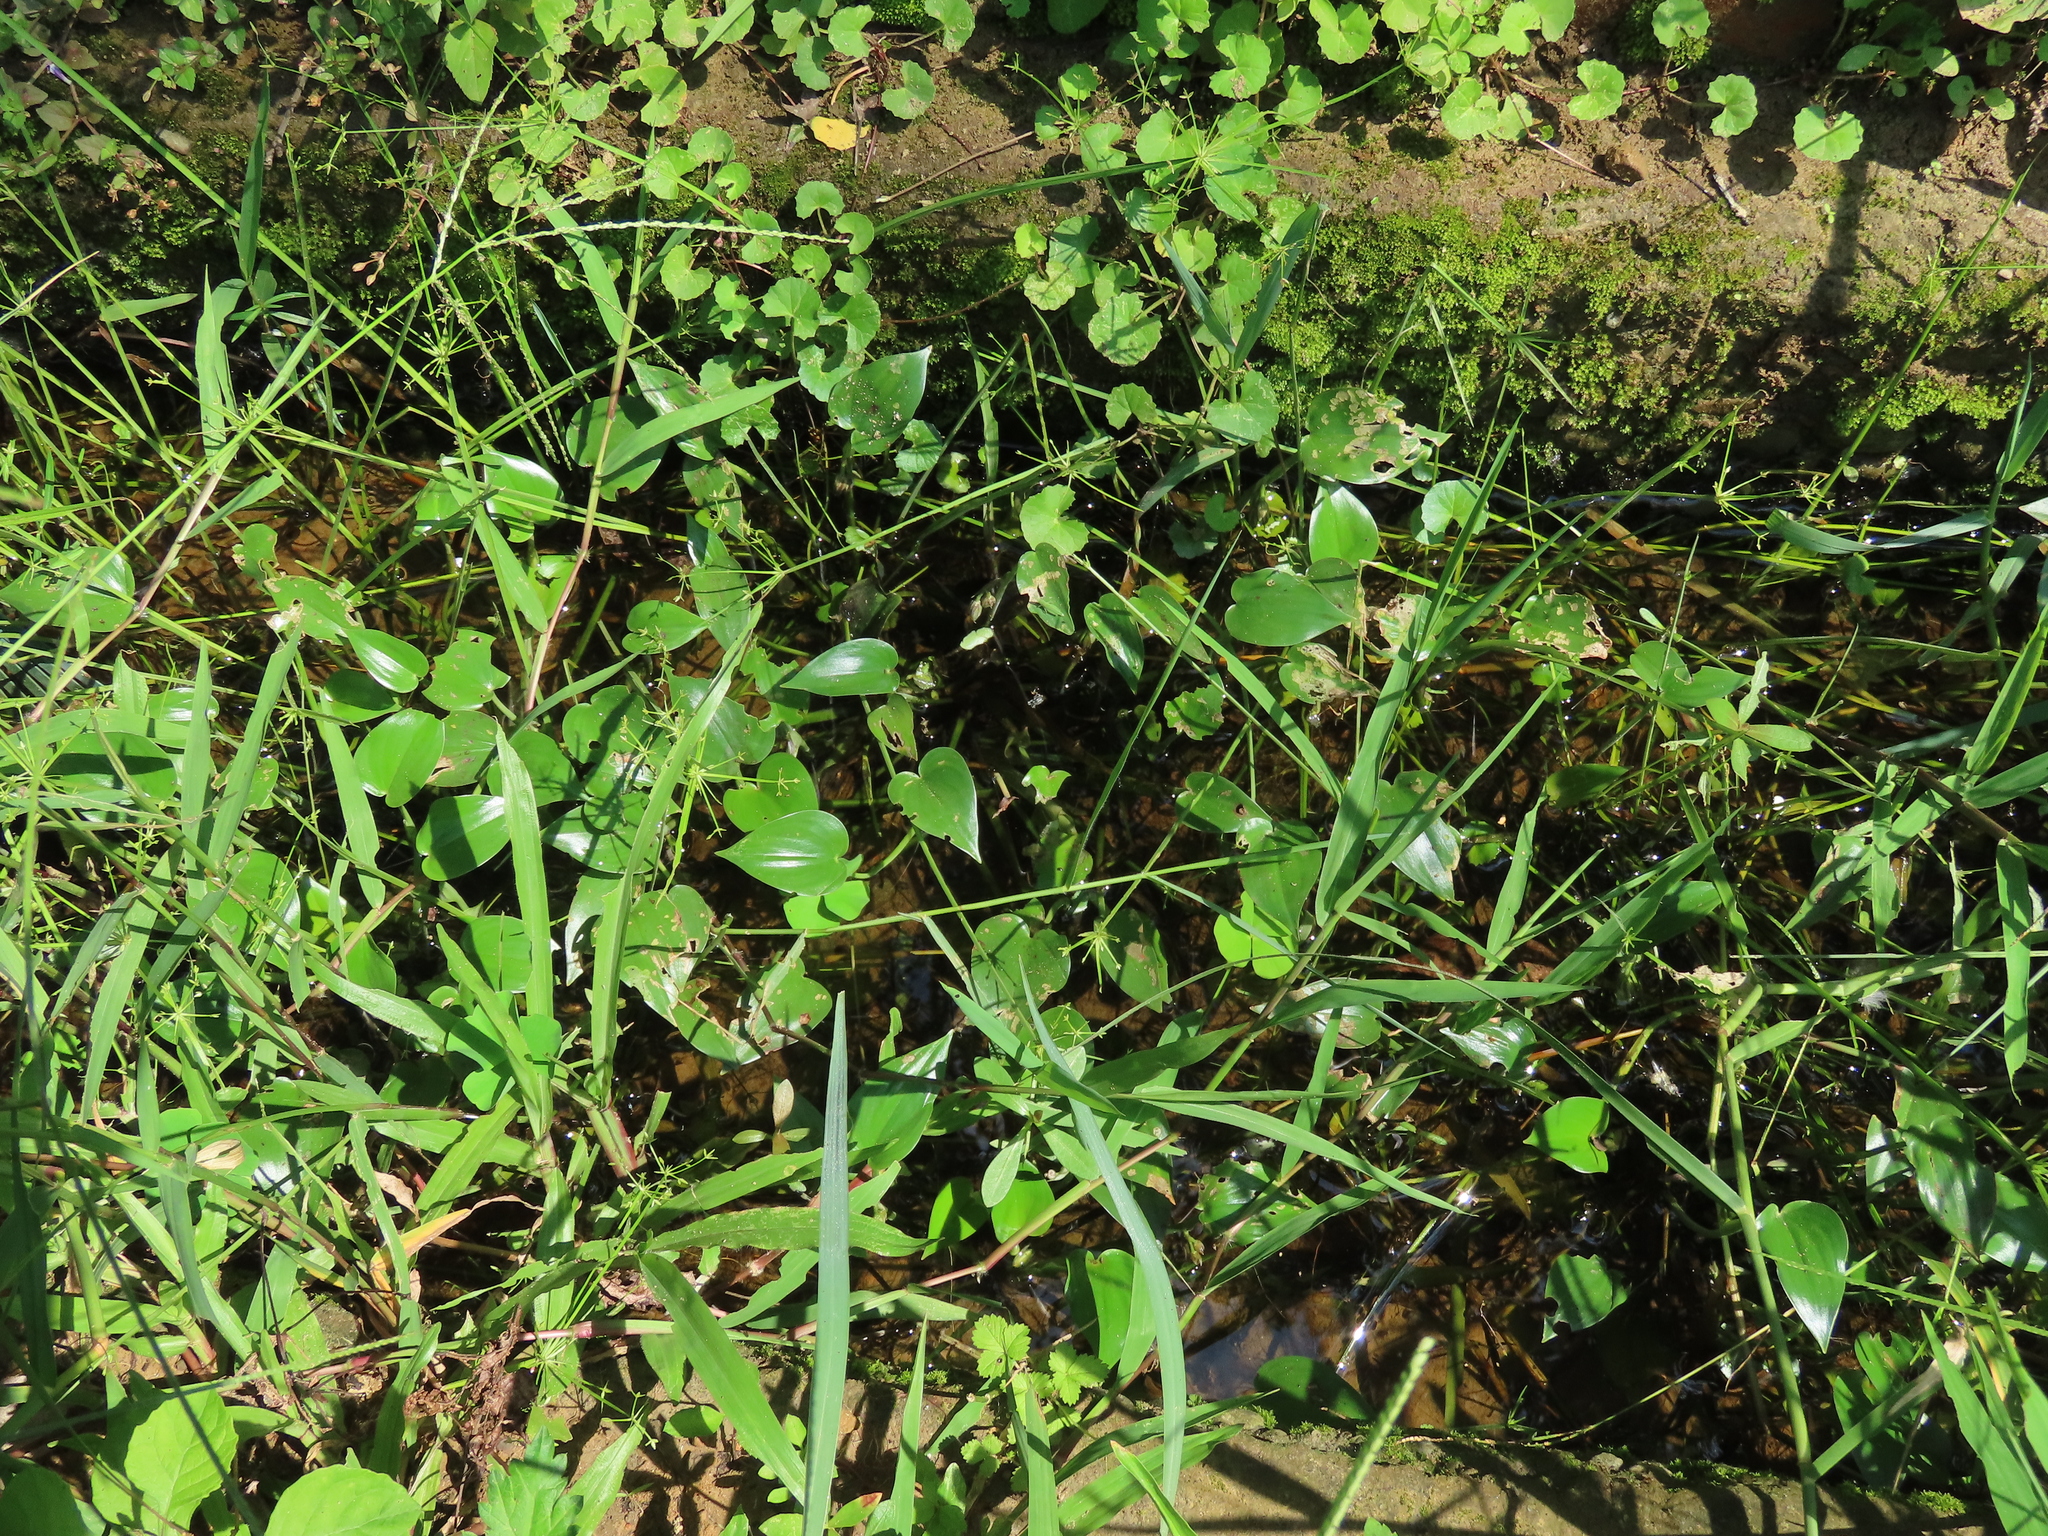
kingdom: Plantae
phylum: Tracheophyta
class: Liliopsida
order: Commelinales
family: Pontederiaceae
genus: Pontederia
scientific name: Pontederia vaginalis
